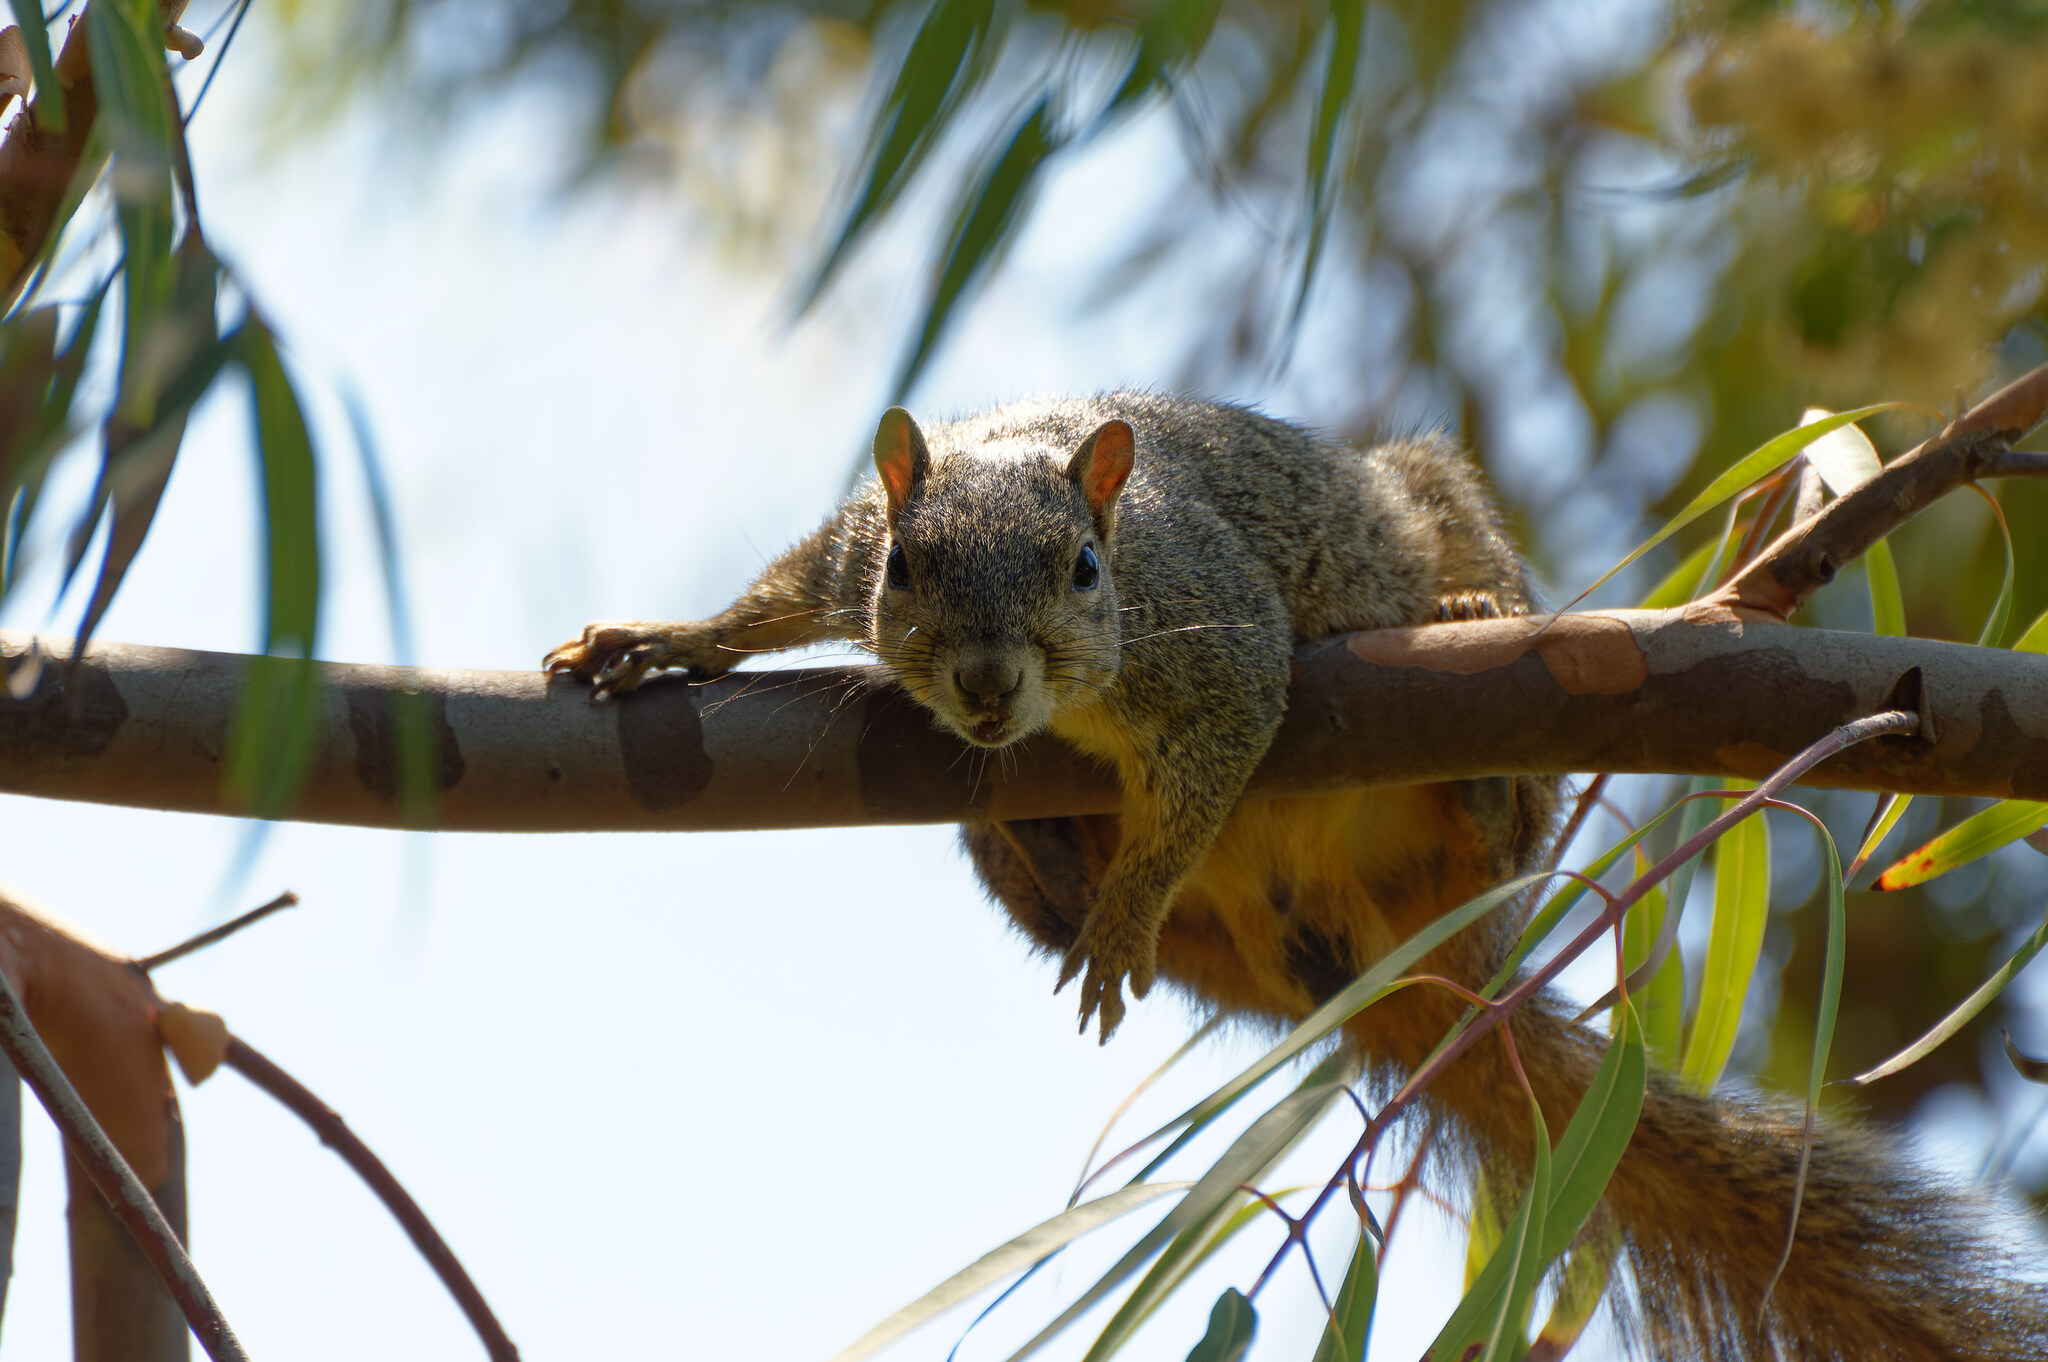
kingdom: Animalia
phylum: Chordata
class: Mammalia
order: Rodentia
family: Sciuridae
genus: Sciurus
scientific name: Sciurus niger
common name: Fox squirrel
